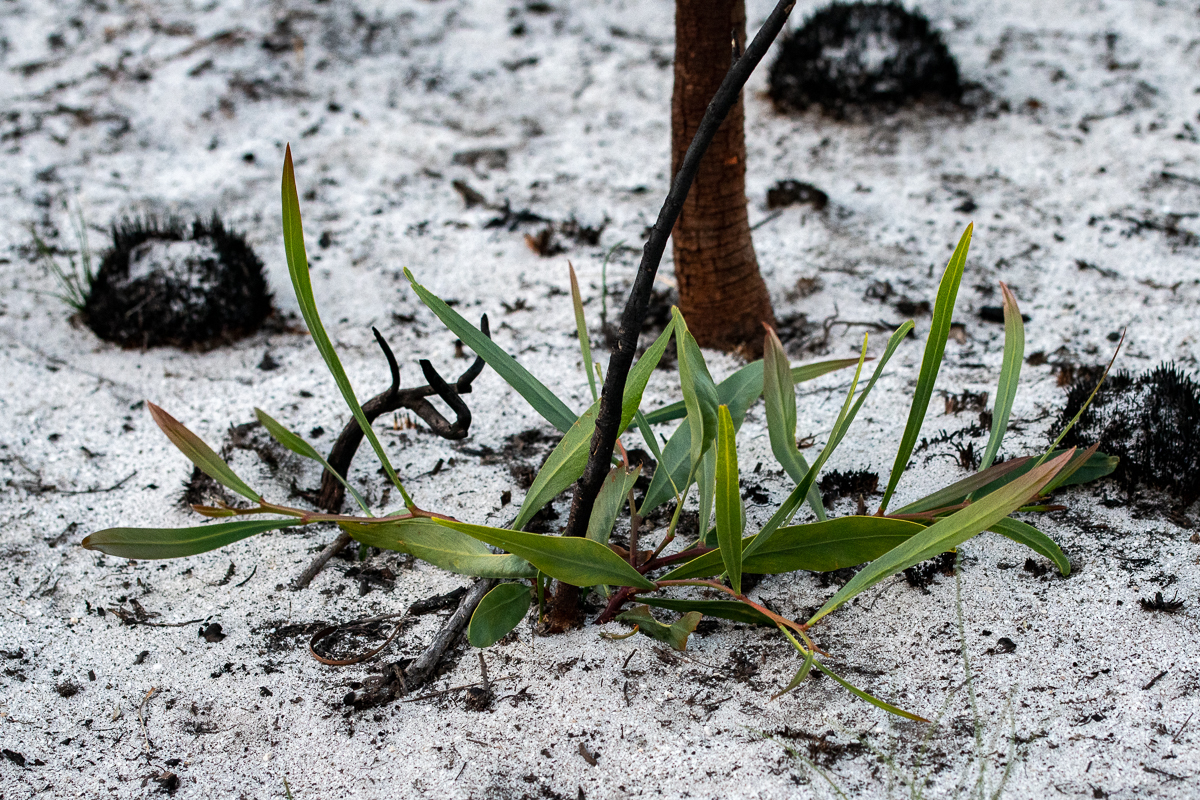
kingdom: Plantae
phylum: Tracheophyta
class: Magnoliopsida
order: Fabales
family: Fabaceae
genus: Acacia
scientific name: Acacia saligna
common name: Orange wattle
